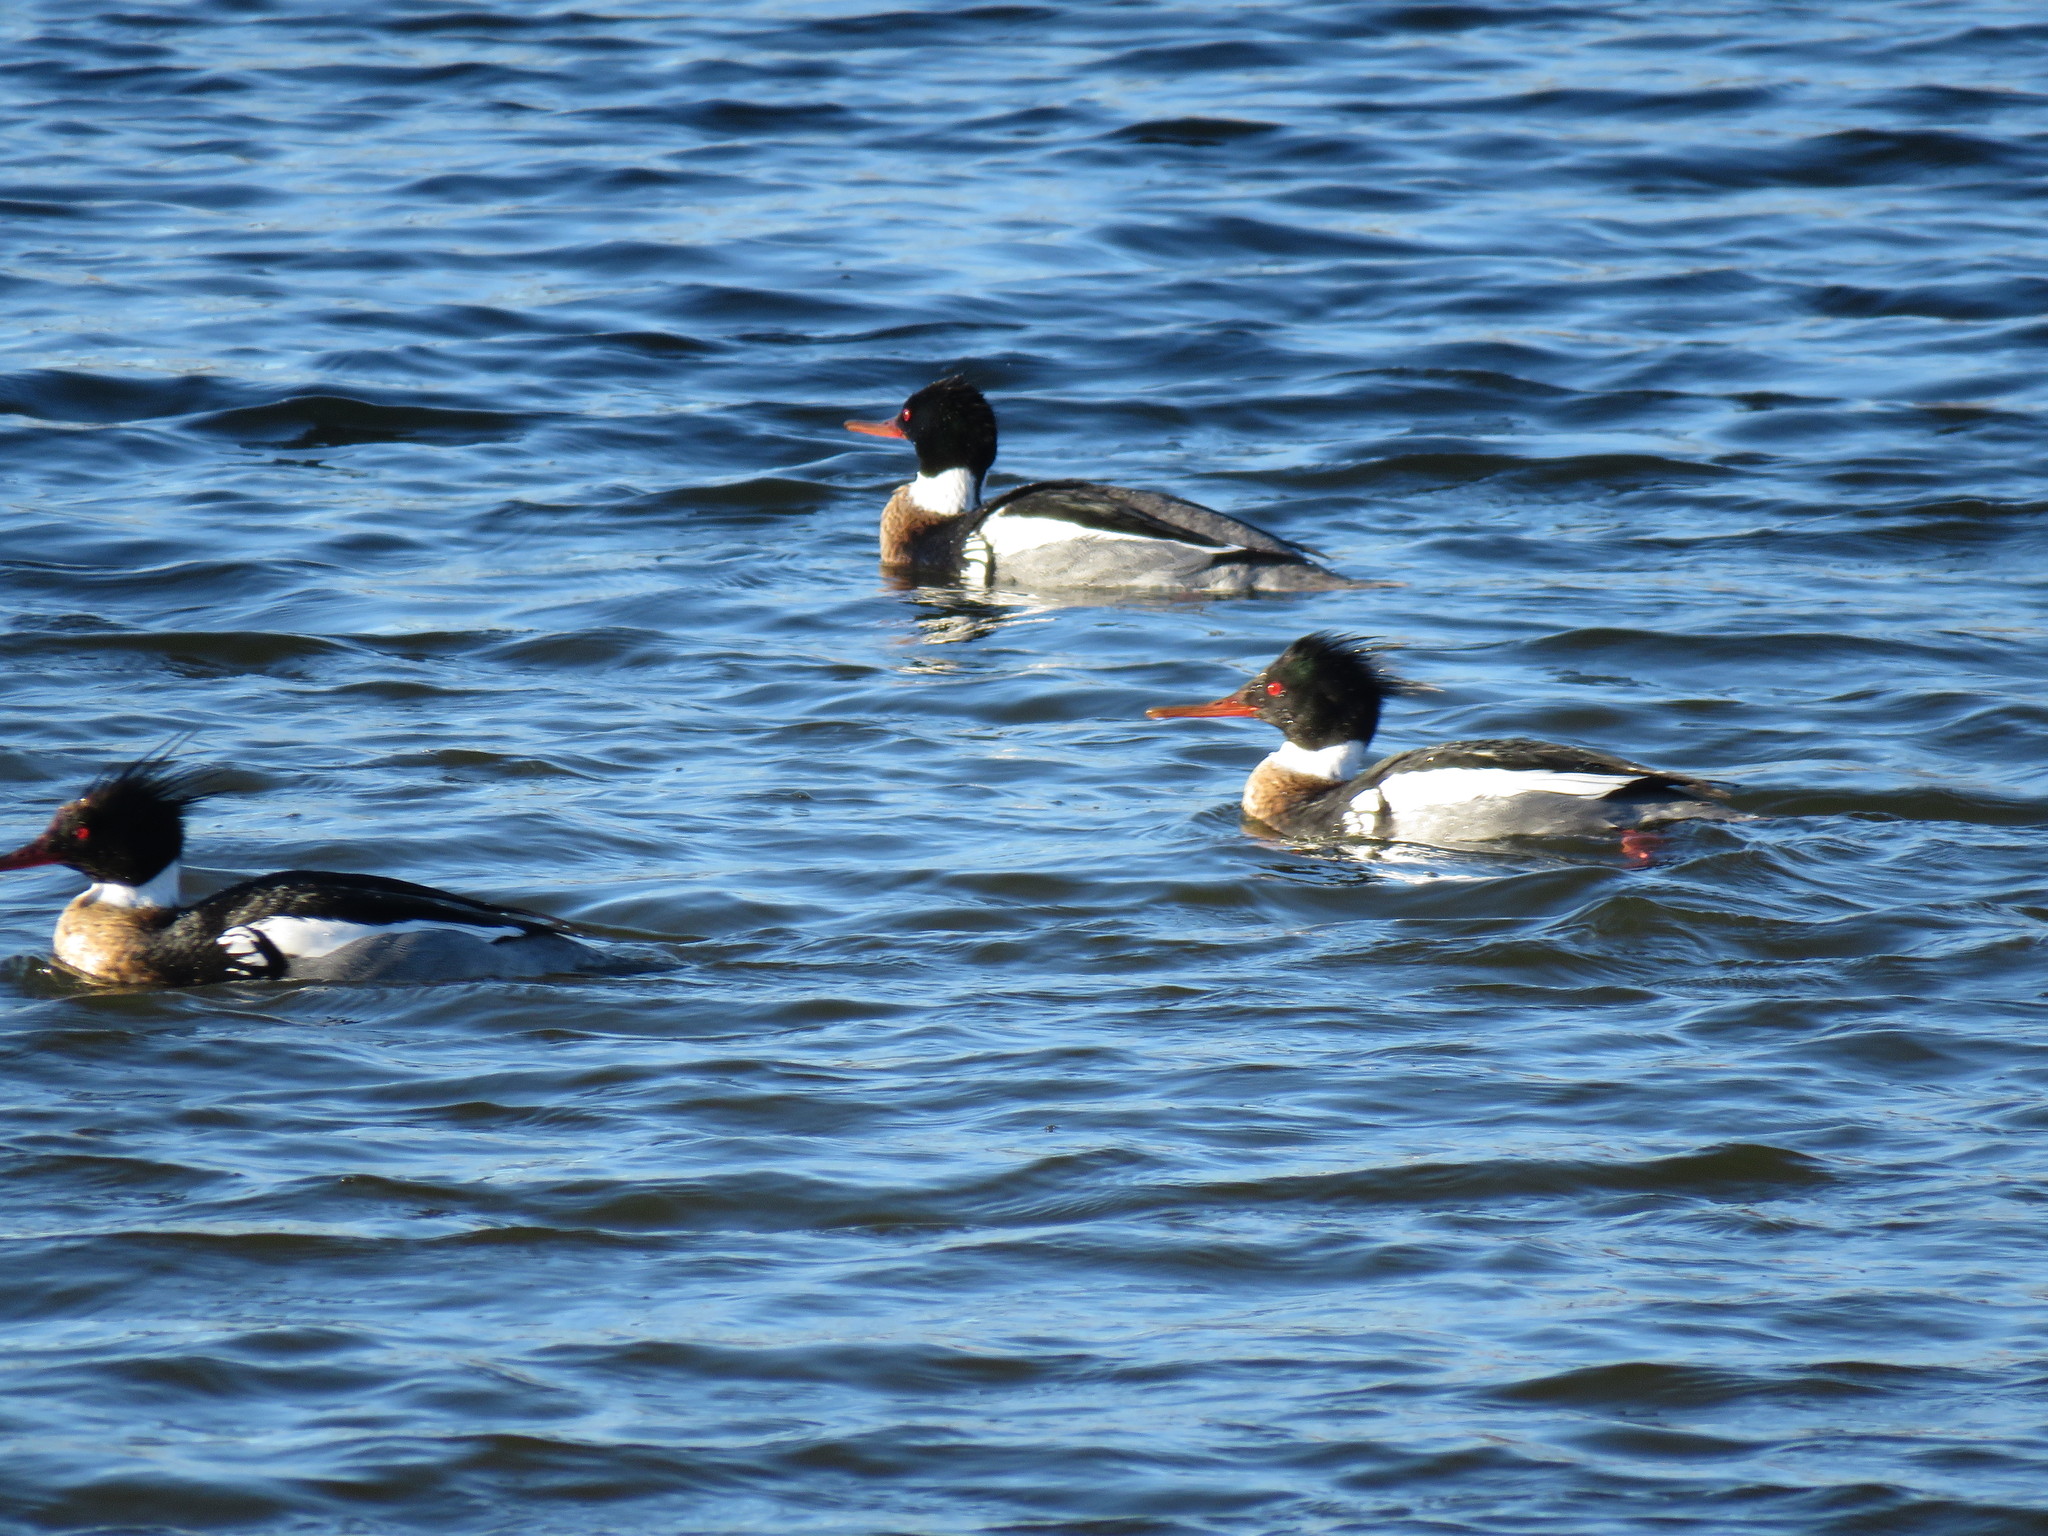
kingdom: Animalia
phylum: Chordata
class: Aves
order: Anseriformes
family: Anatidae
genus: Mergus
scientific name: Mergus serrator
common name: Red-breasted merganser
